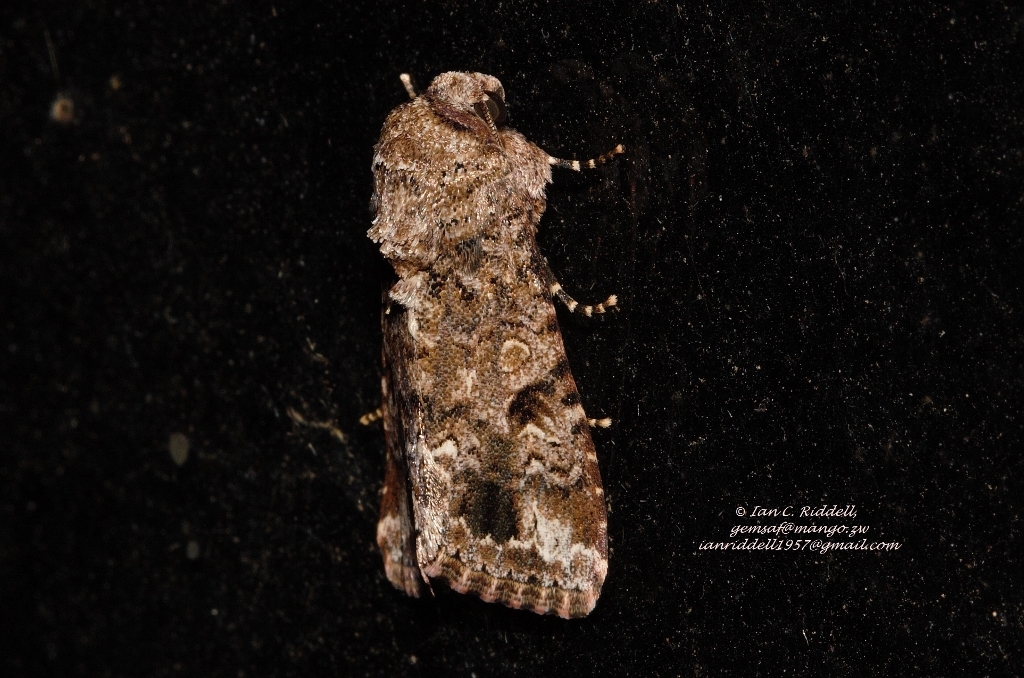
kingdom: Animalia
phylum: Arthropoda
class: Insecta
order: Lepidoptera
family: Noctuidae
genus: Spodoptera
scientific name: Spodoptera mauritia
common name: Lawn armyworm
